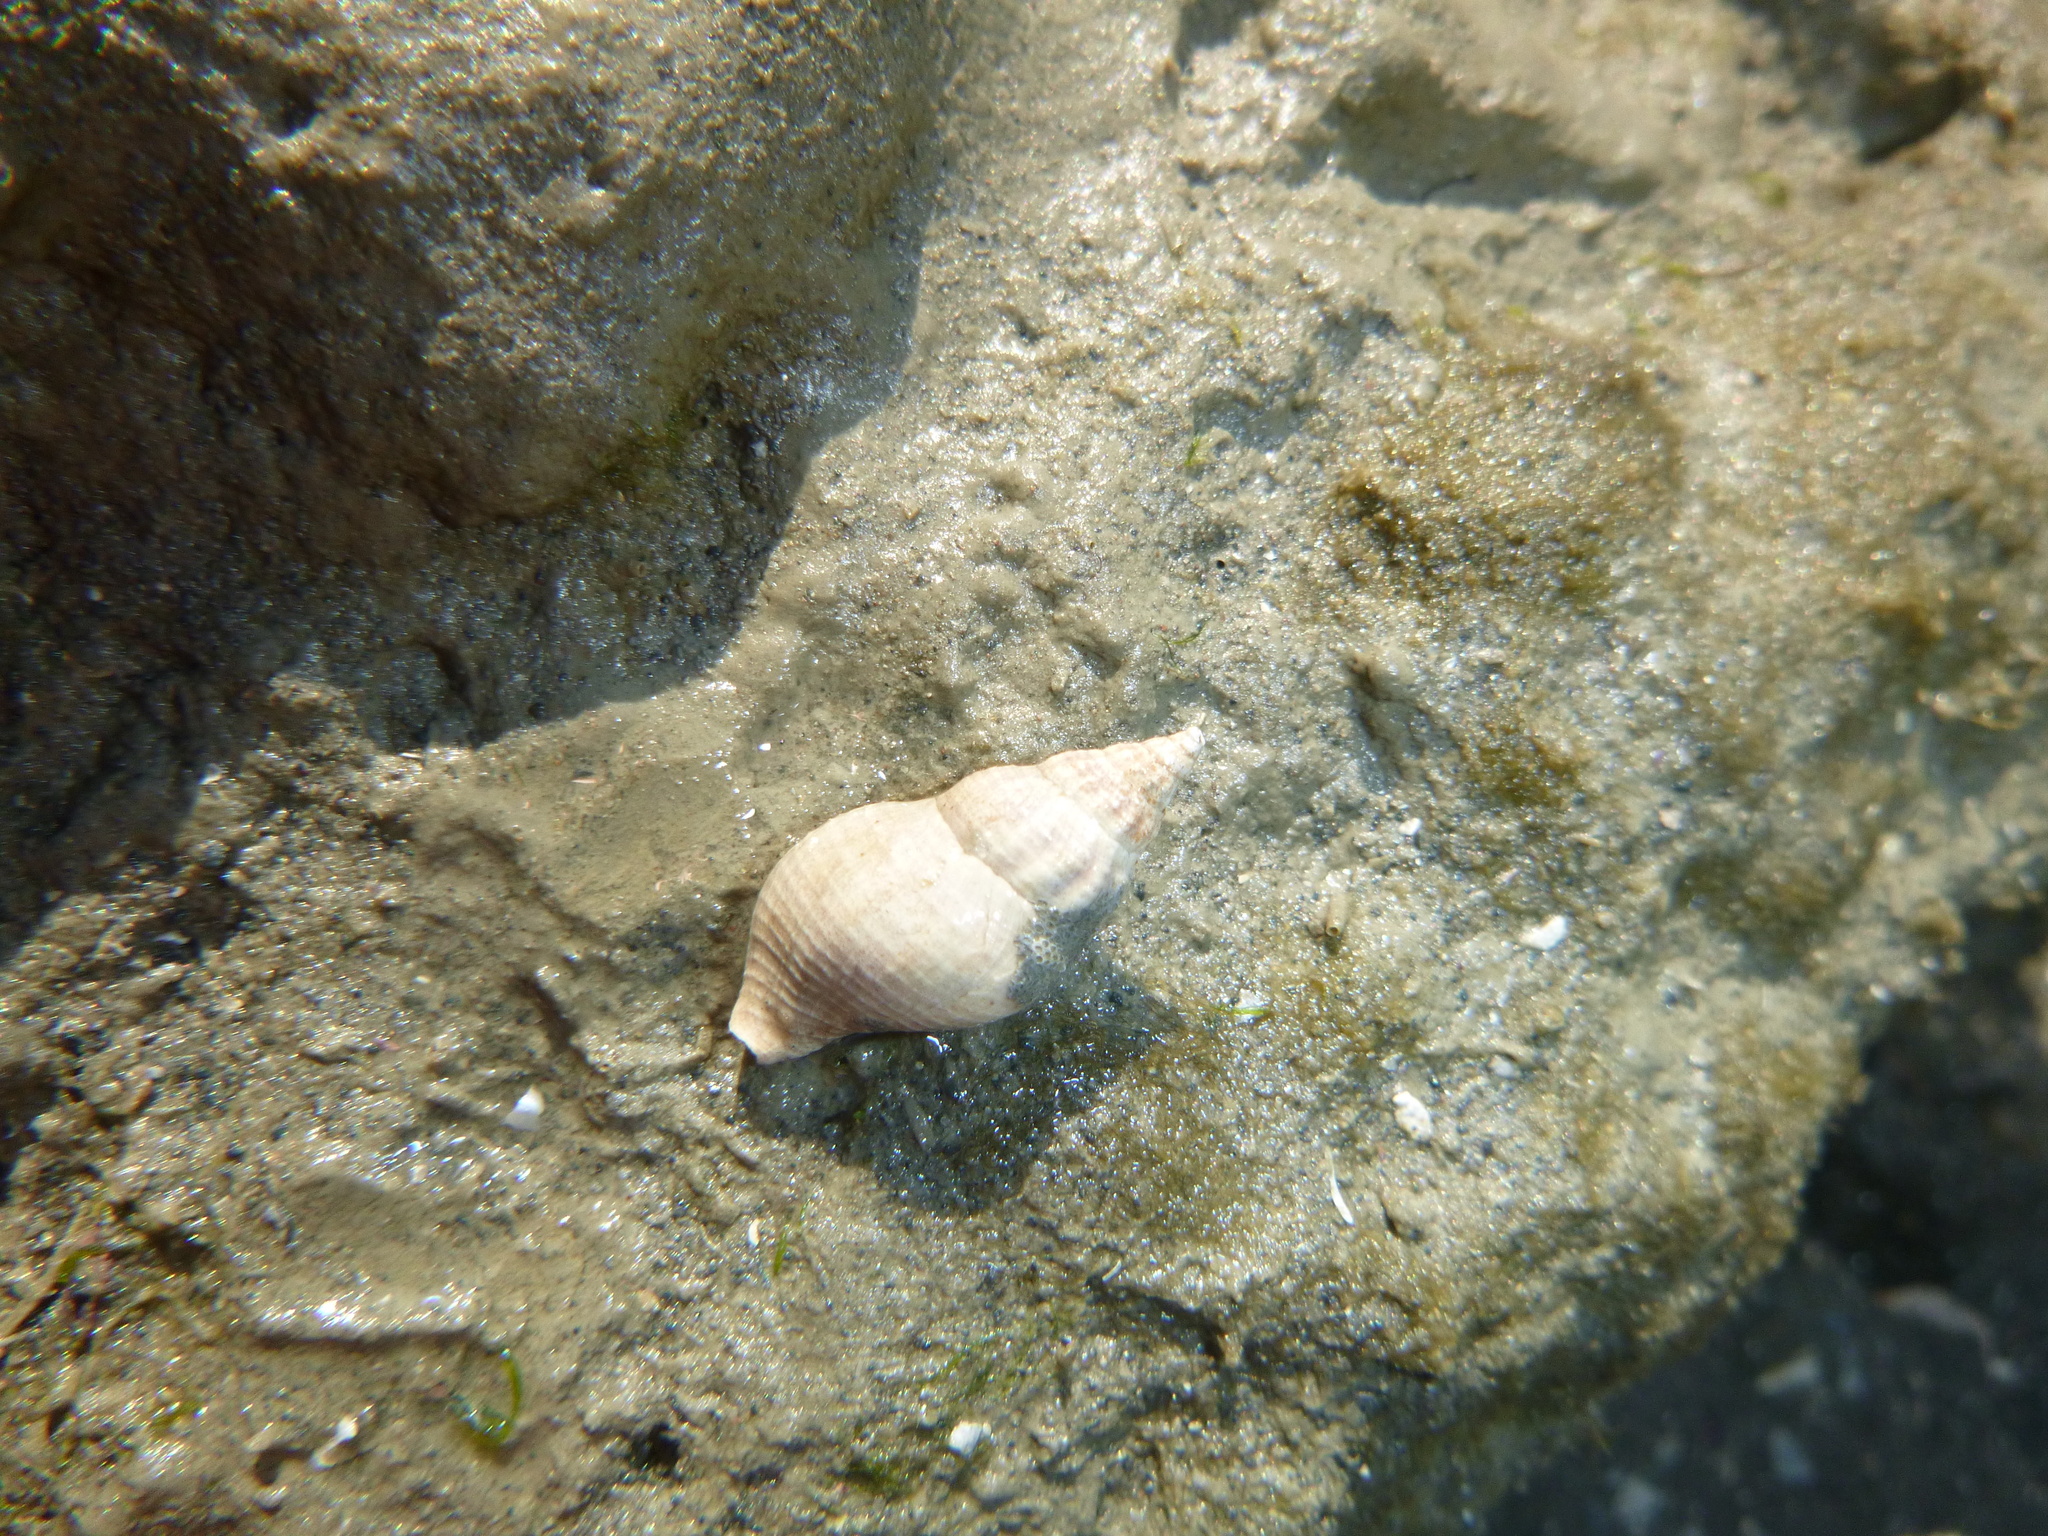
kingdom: Animalia
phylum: Mollusca
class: Gastropoda
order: Neogastropoda
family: Tudiclidae
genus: Buccinulum
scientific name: Buccinulum vittatum
